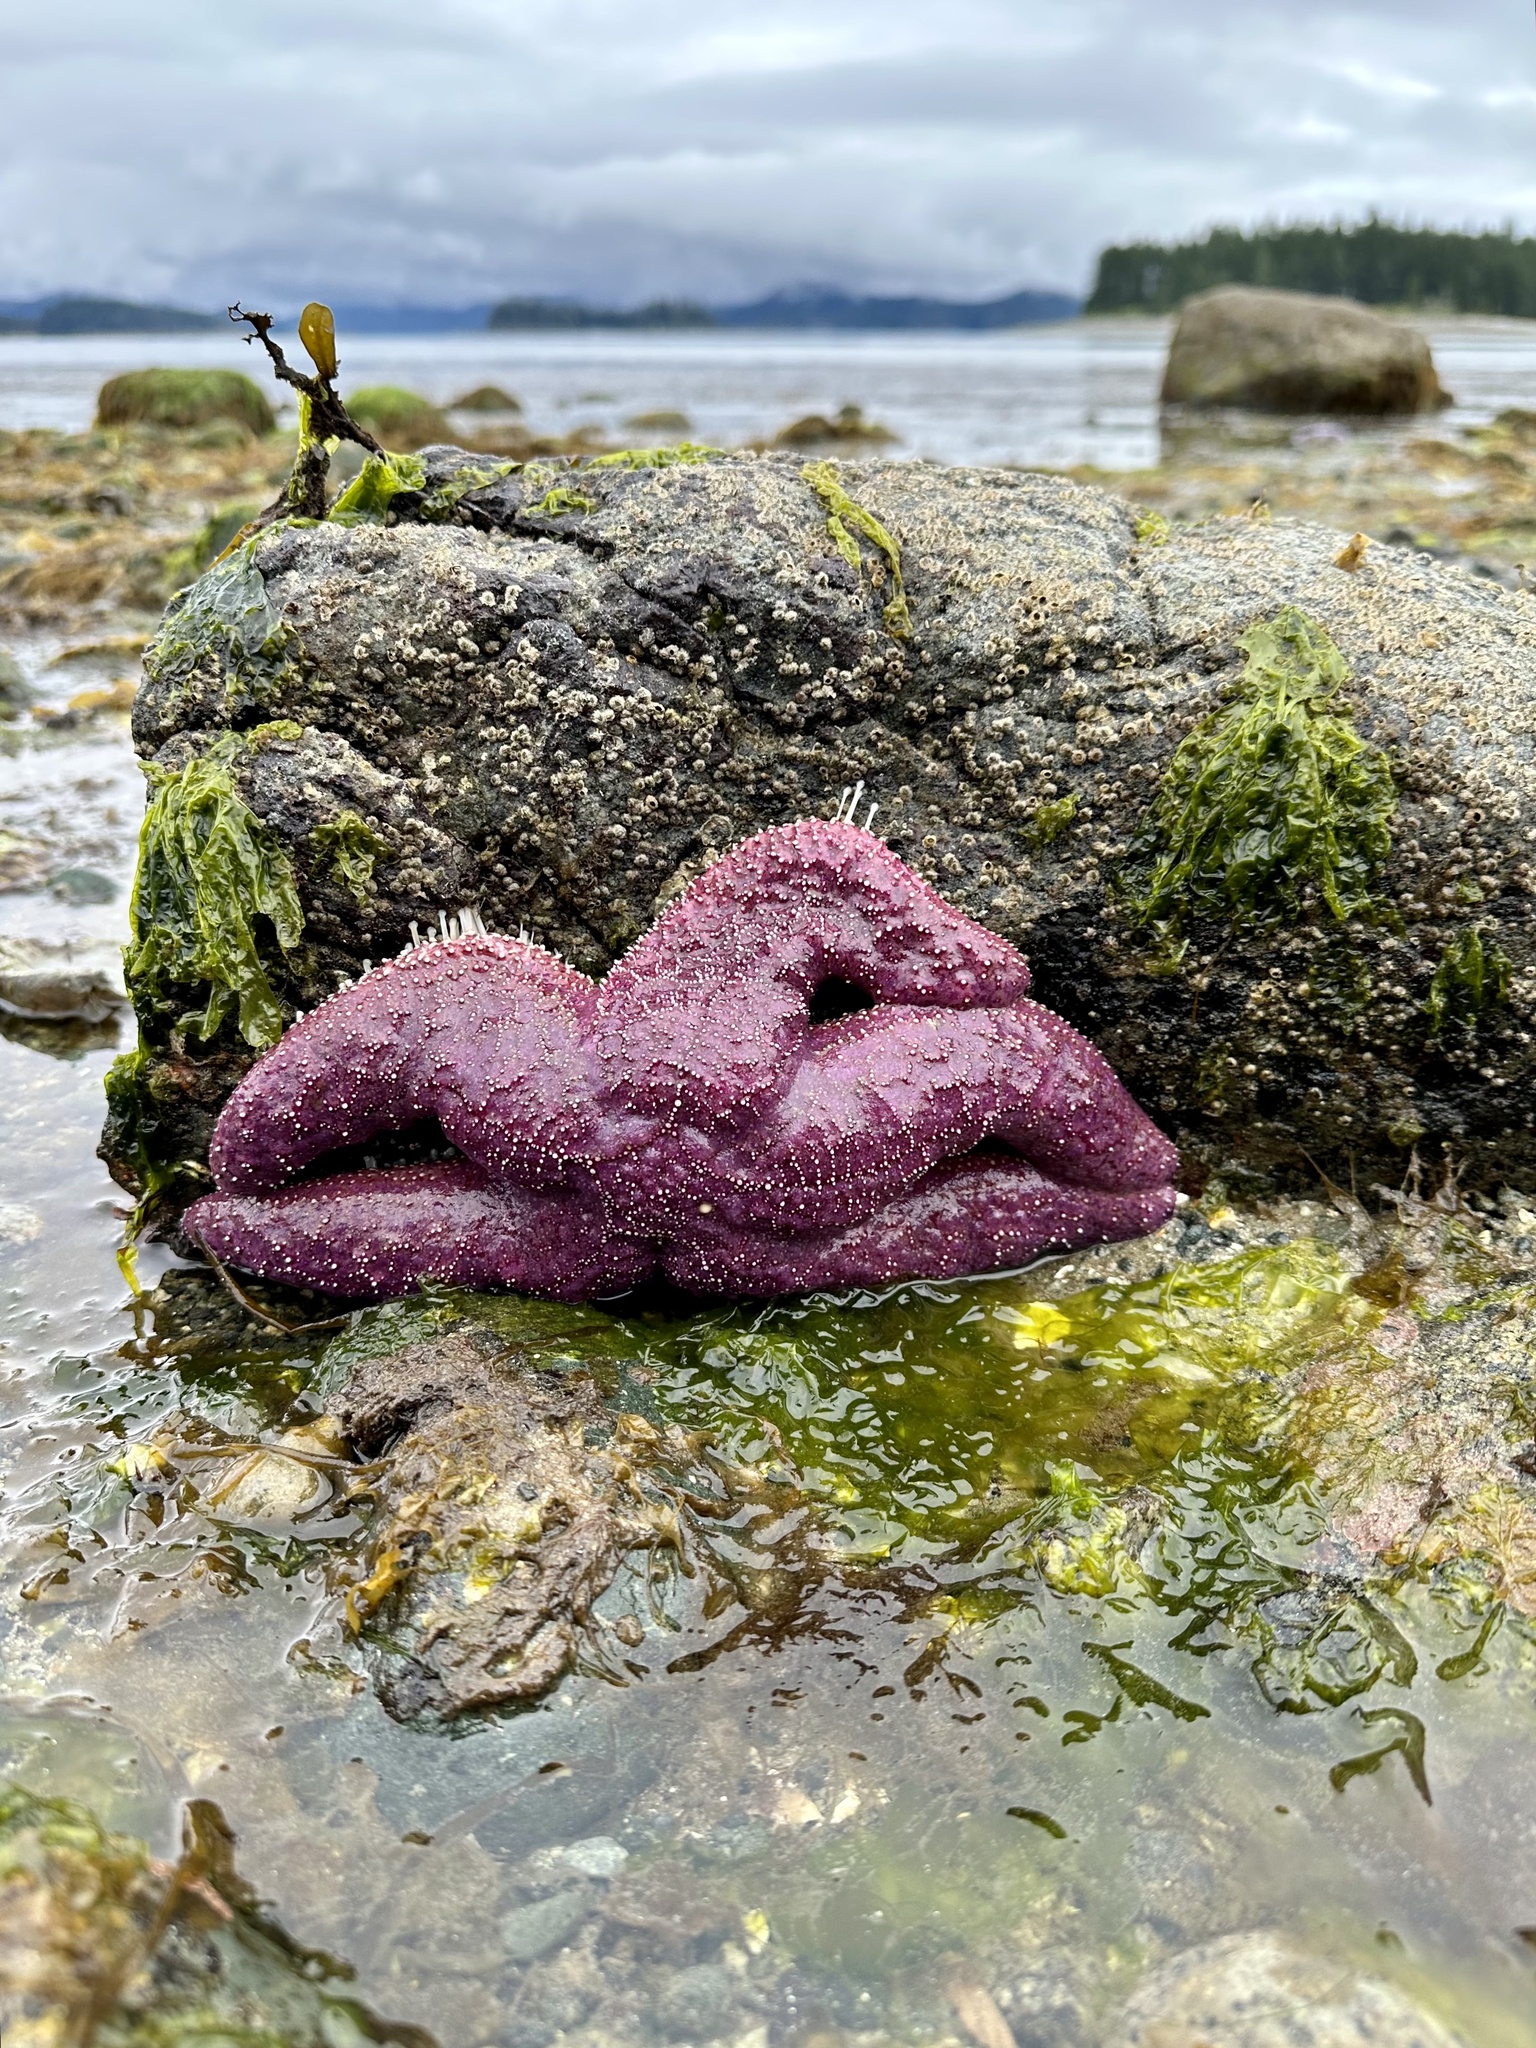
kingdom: Animalia
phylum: Echinodermata
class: Asteroidea
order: Forcipulatida
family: Asteriidae
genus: Pisaster
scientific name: Pisaster ochraceus
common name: Ochre stars
